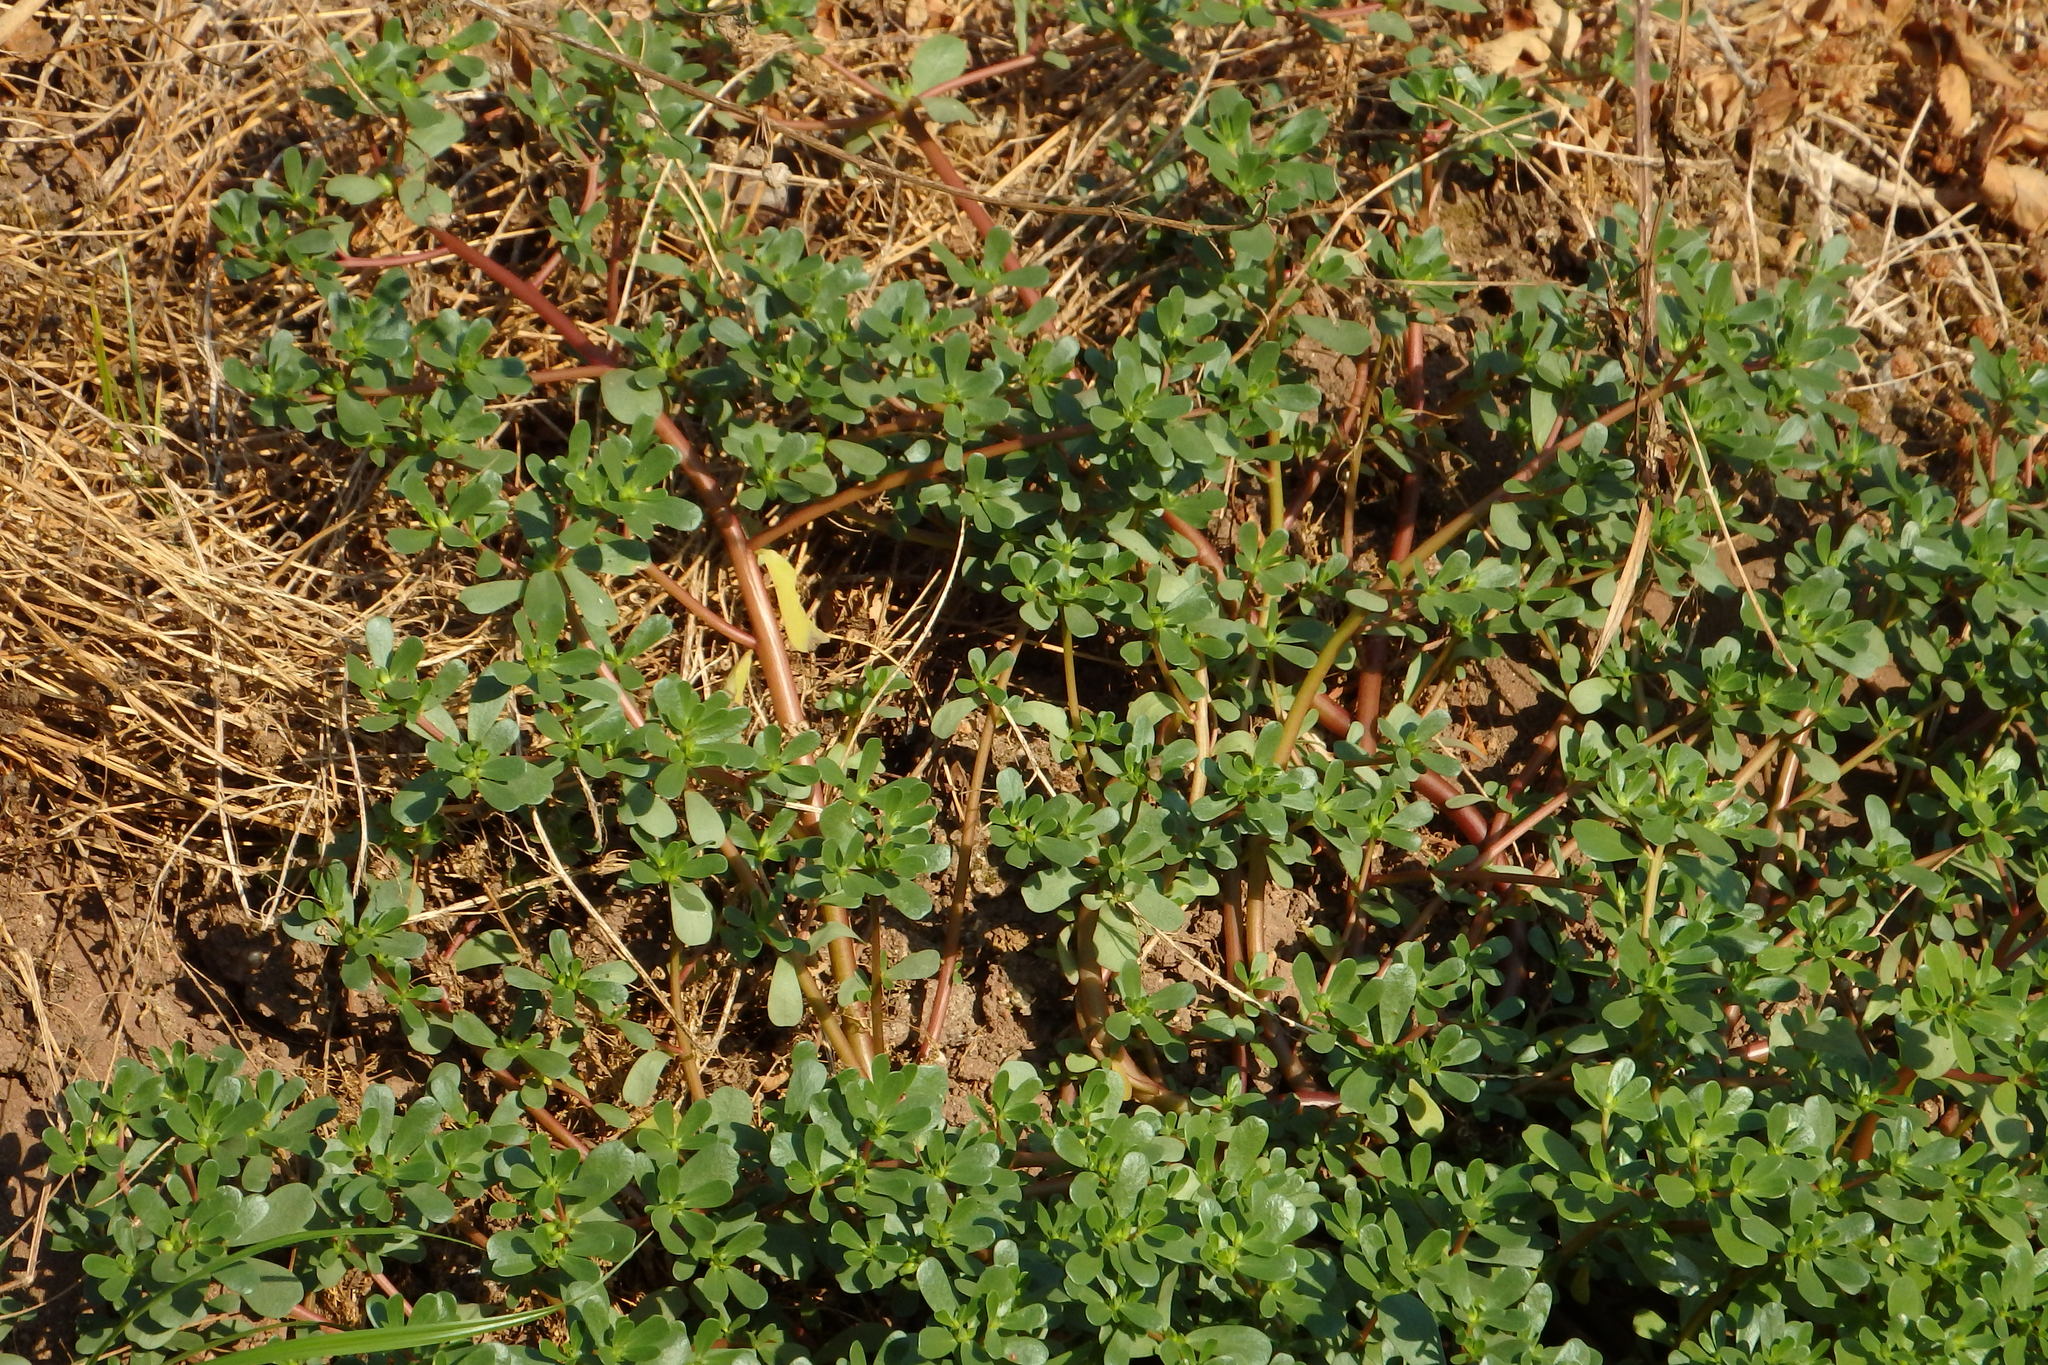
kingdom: Plantae
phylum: Tracheophyta
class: Magnoliopsida
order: Caryophyllales
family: Portulacaceae
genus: Portulaca
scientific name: Portulaca oleracea
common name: Common purslane
